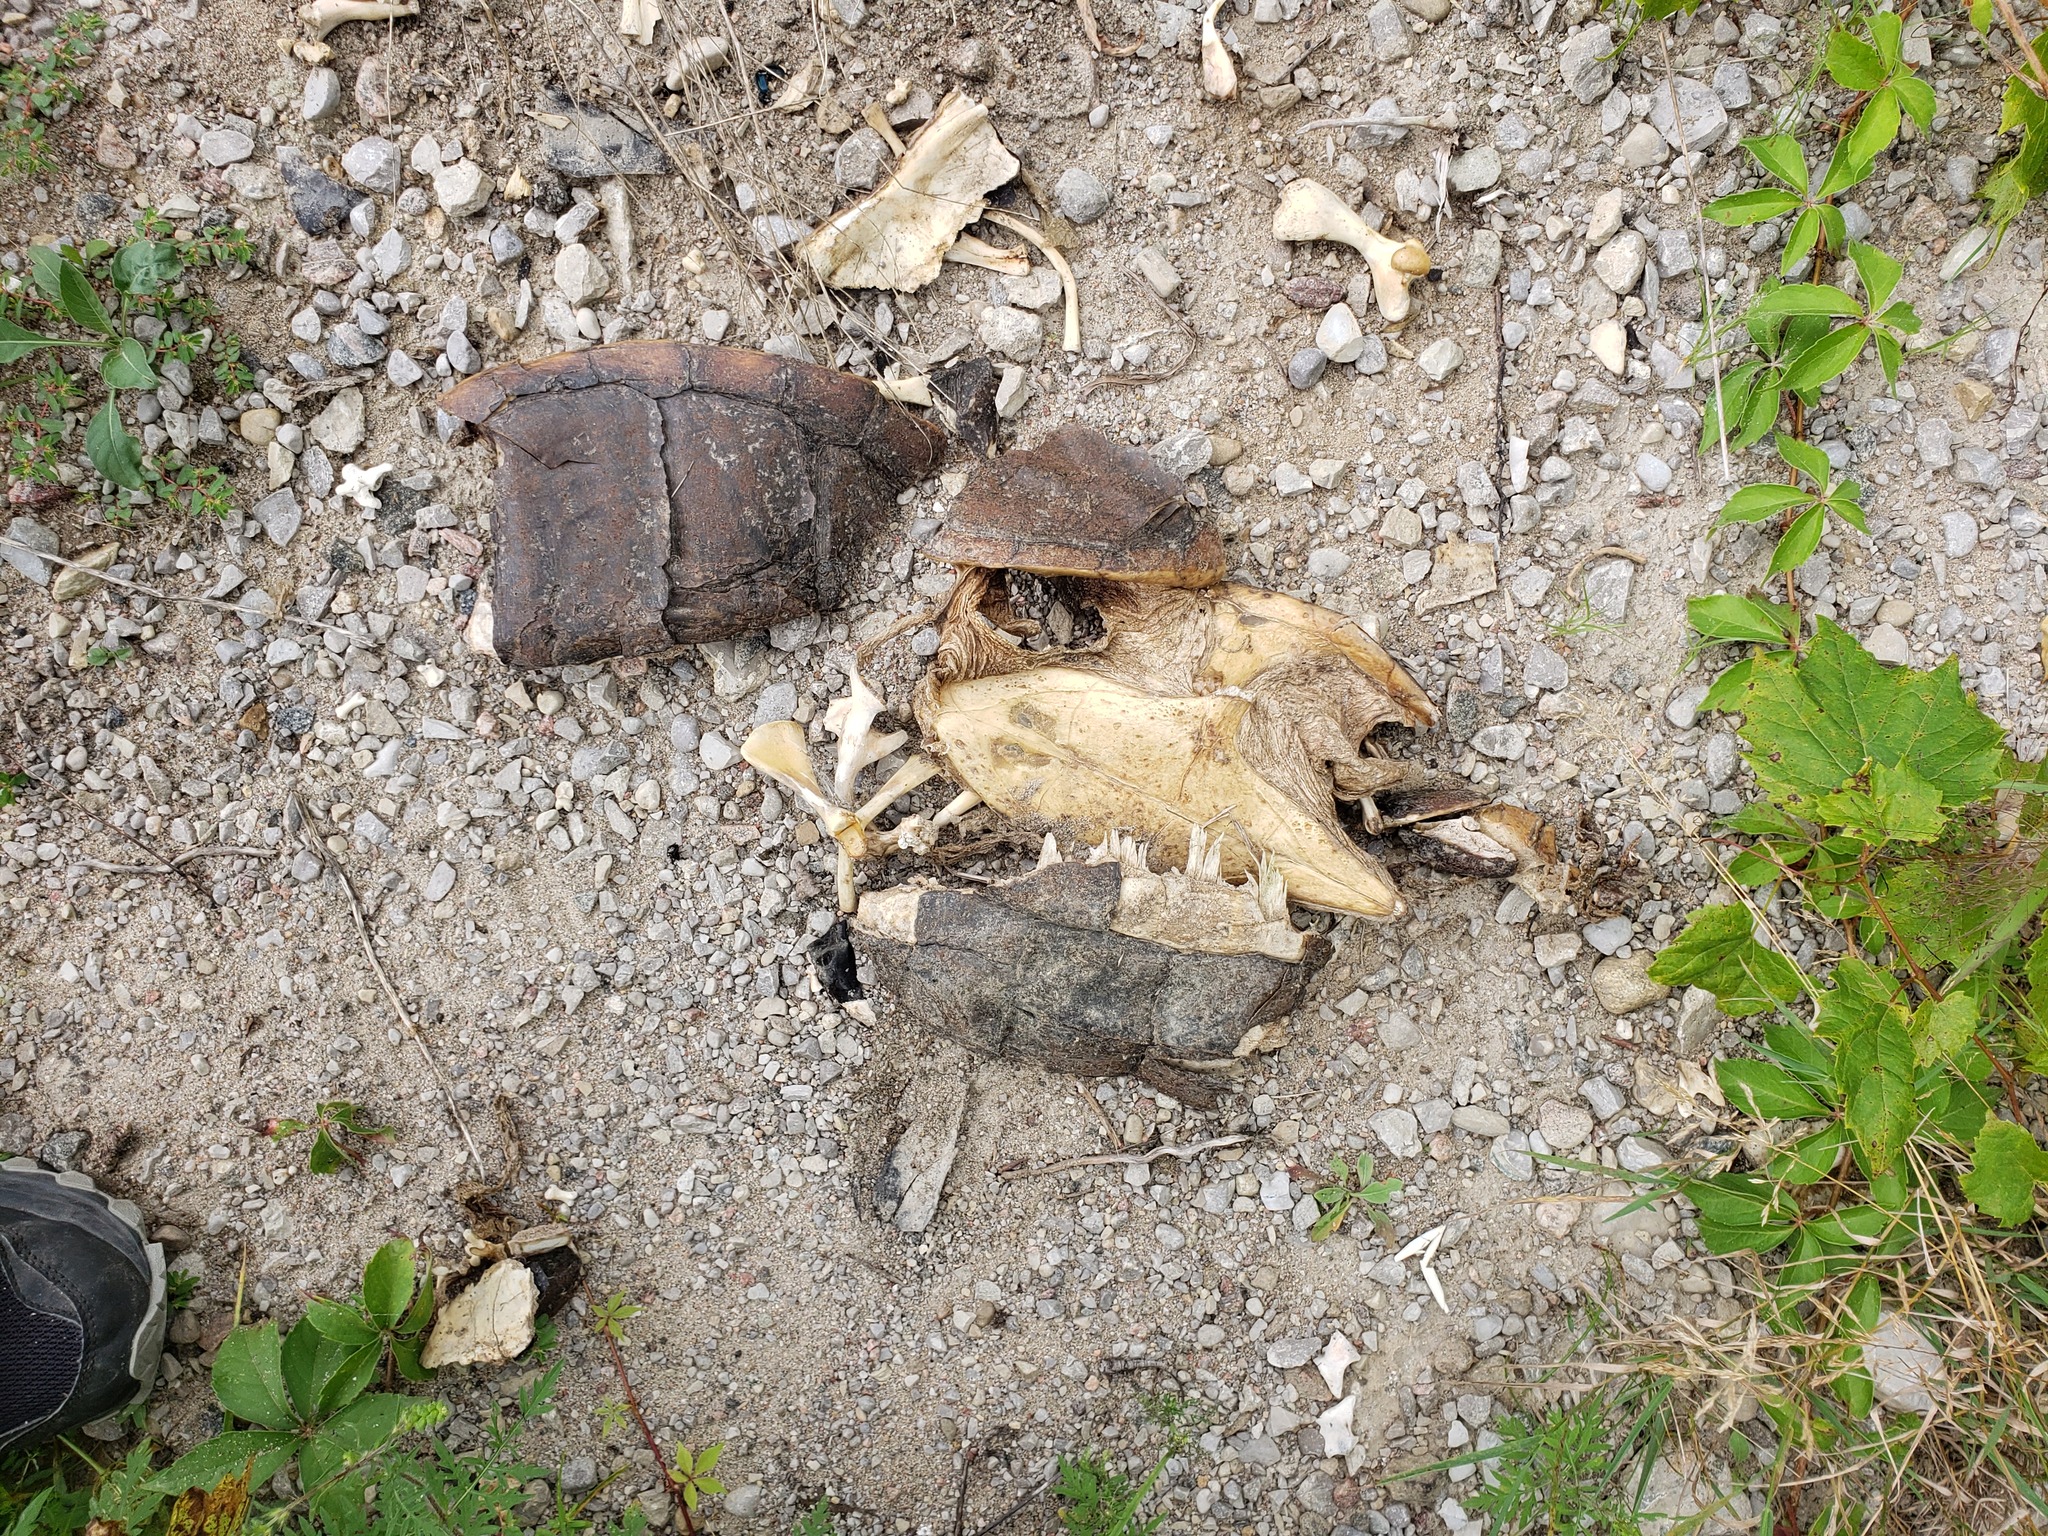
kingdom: Animalia
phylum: Chordata
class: Testudines
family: Chelydridae
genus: Chelydra
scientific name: Chelydra serpentina
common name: Common snapping turtle
